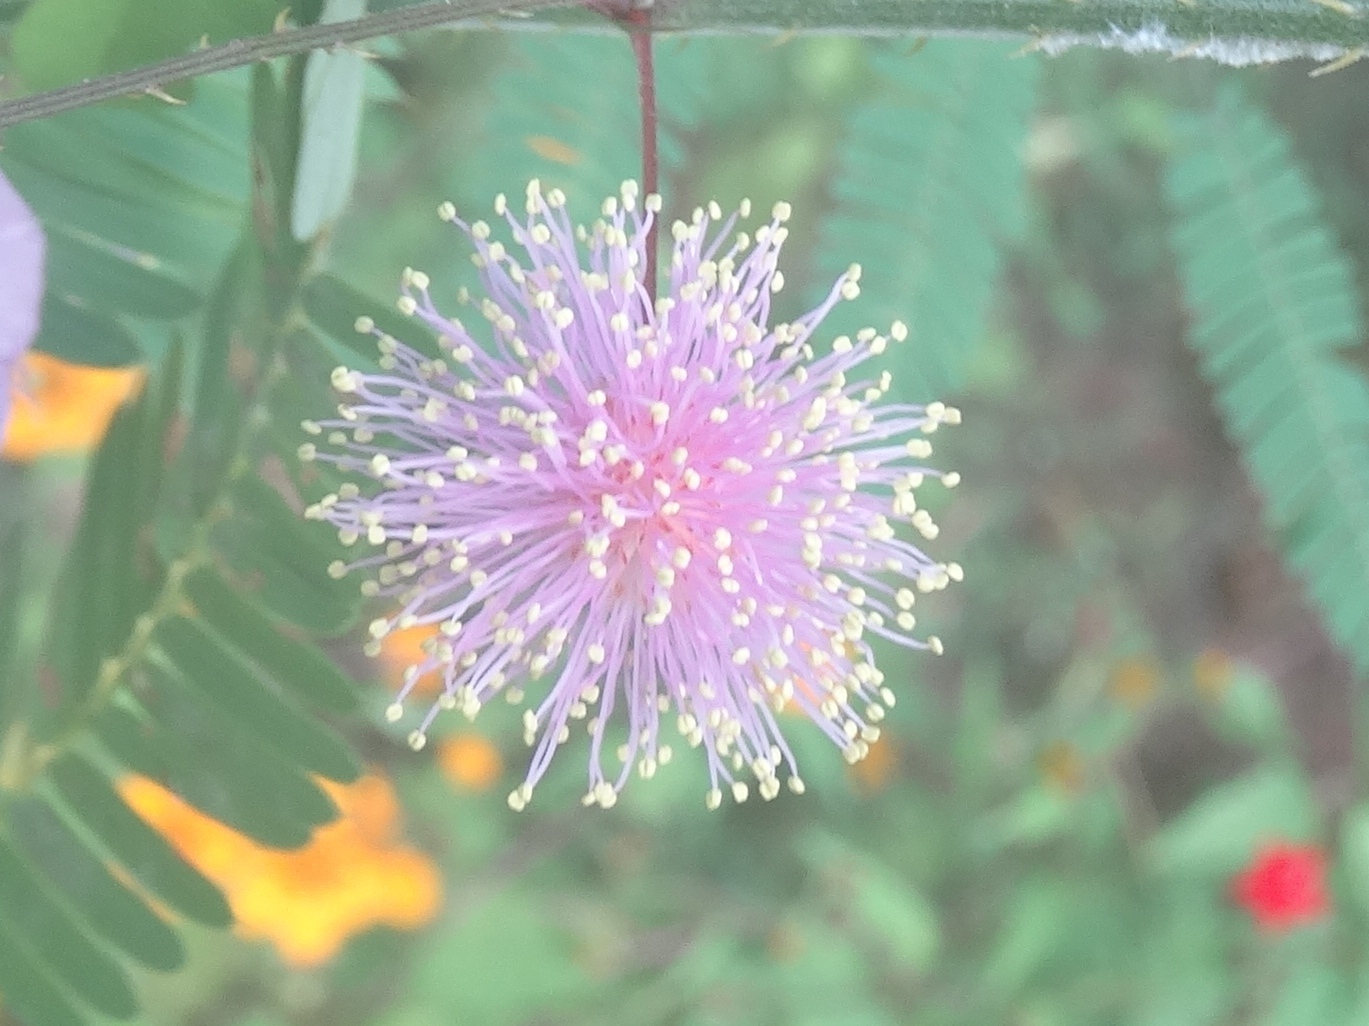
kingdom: Plantae
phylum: Tracheophyta
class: Magnoliopsida
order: Fabales
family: Fabaceae
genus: Mimosa
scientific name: Mimosa quadrivalvis
